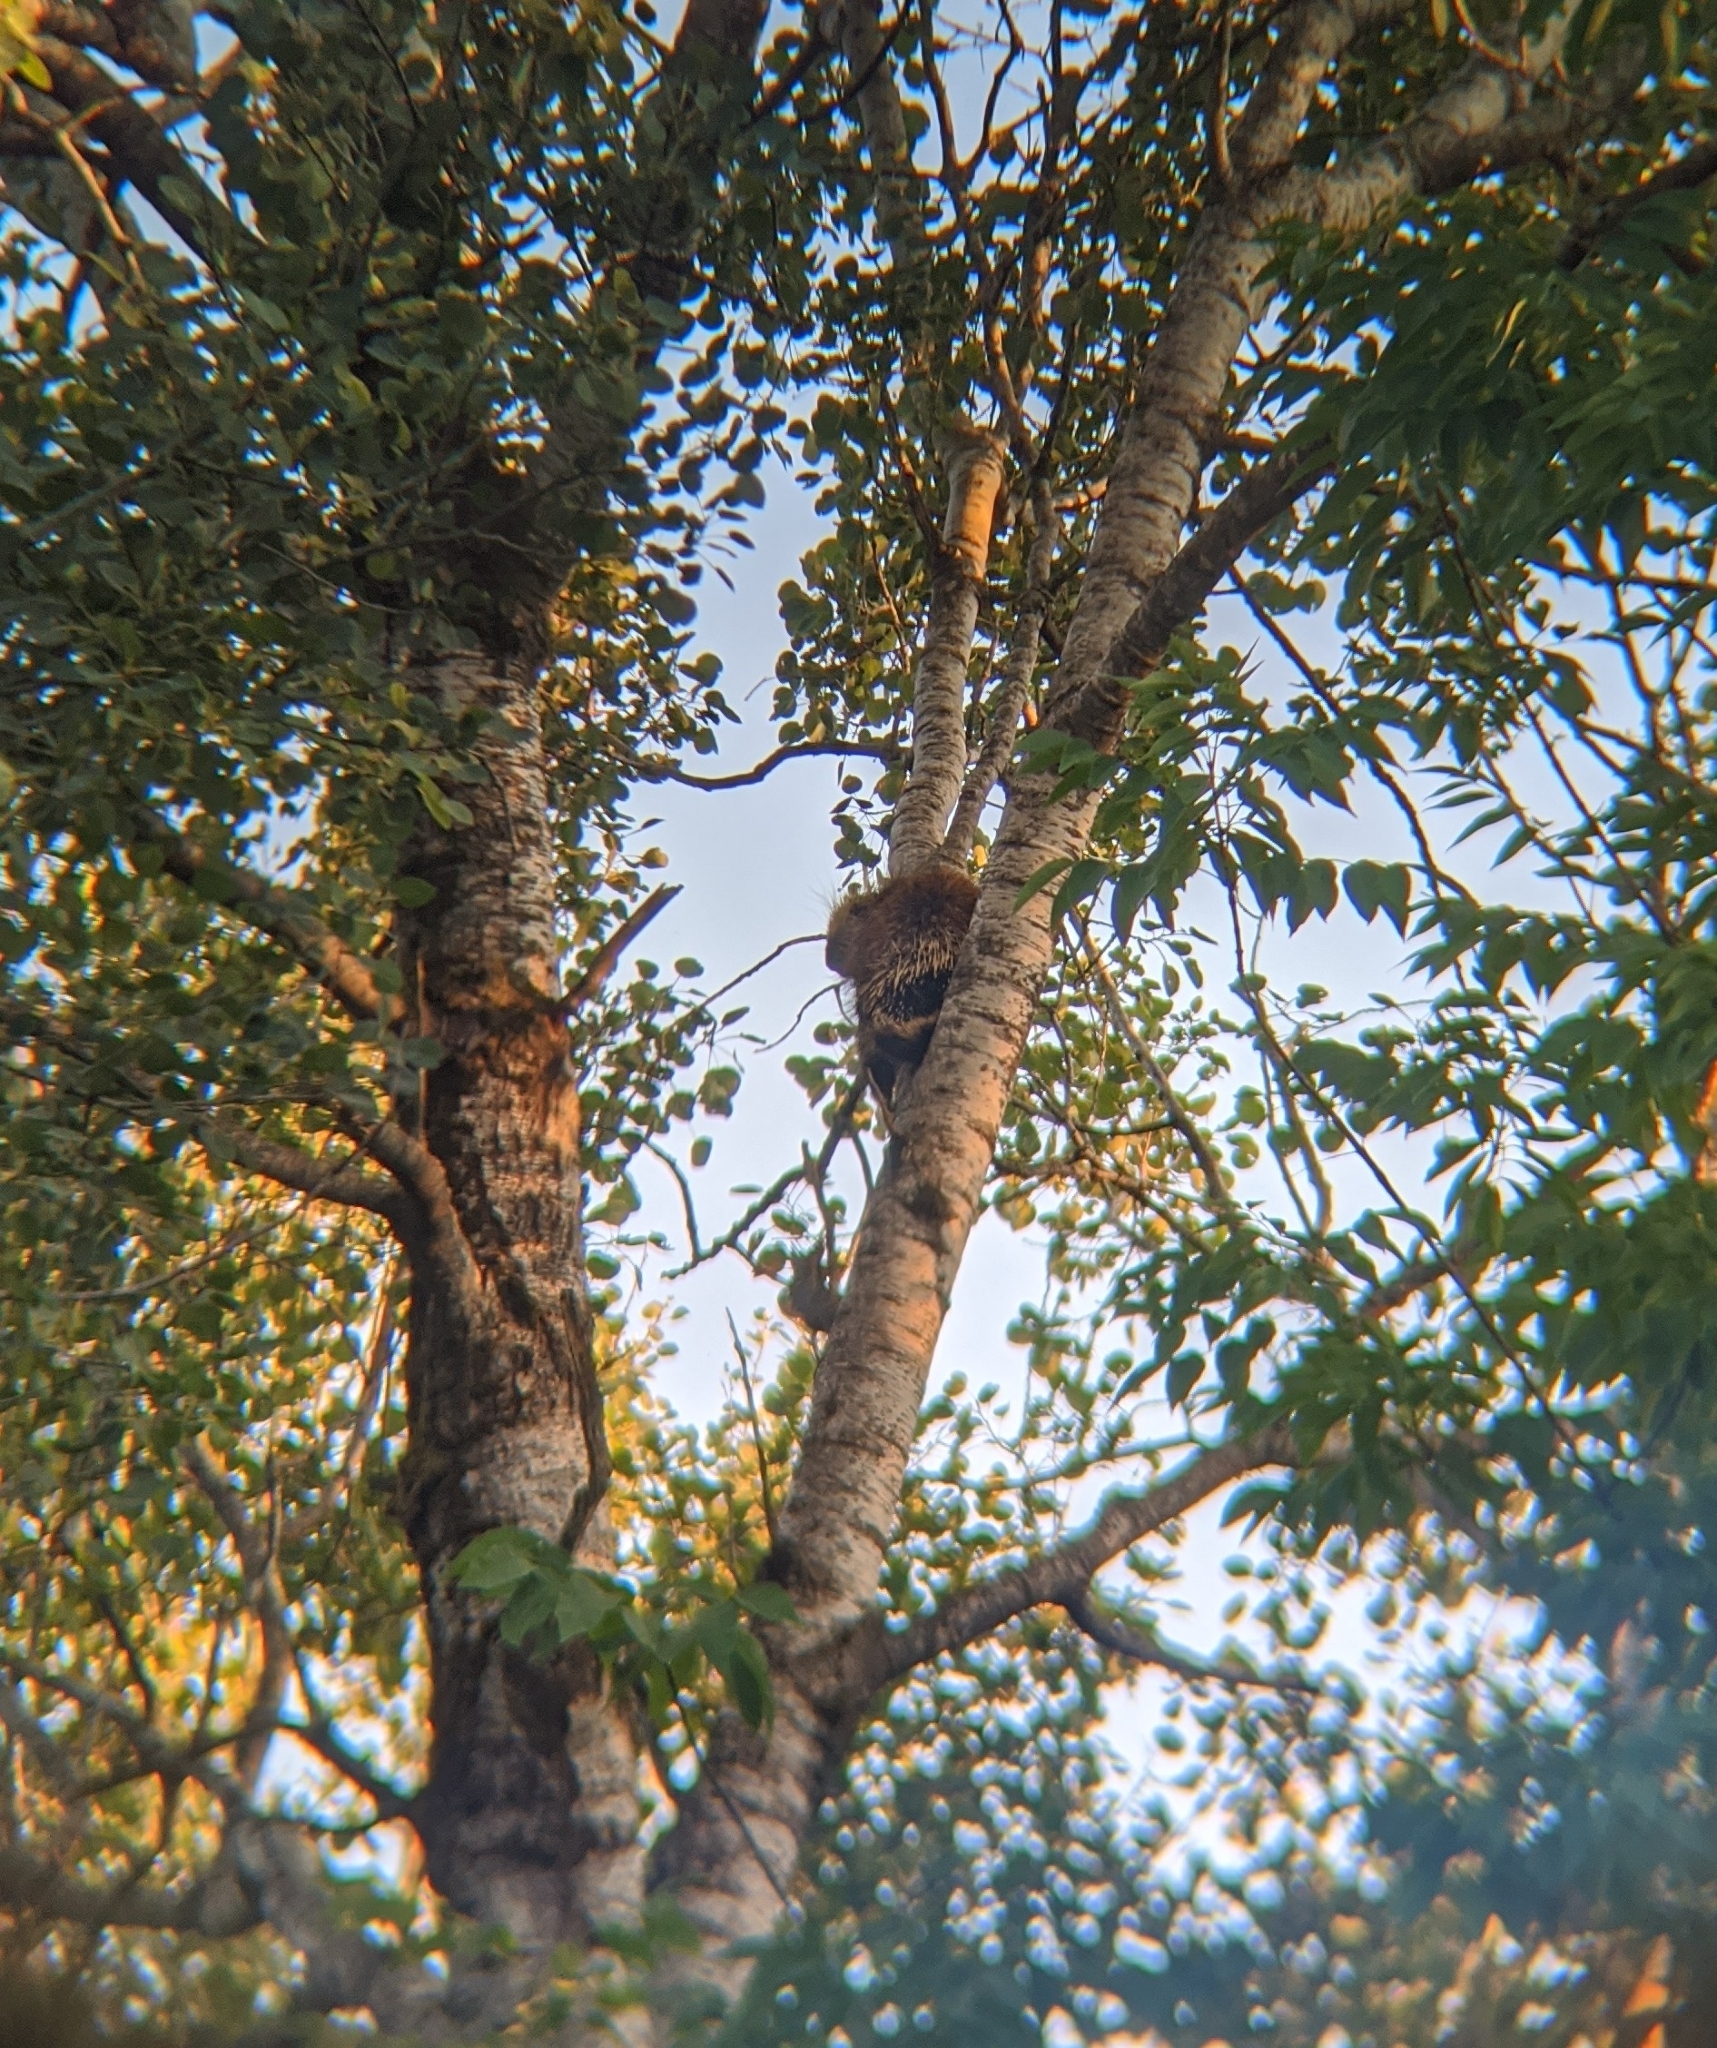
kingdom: Animalia
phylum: Chordata
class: Mammalia
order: Rodentia
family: Erethizontidae
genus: Erethizon
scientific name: Erethizon dorsatus
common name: North american porcupine
